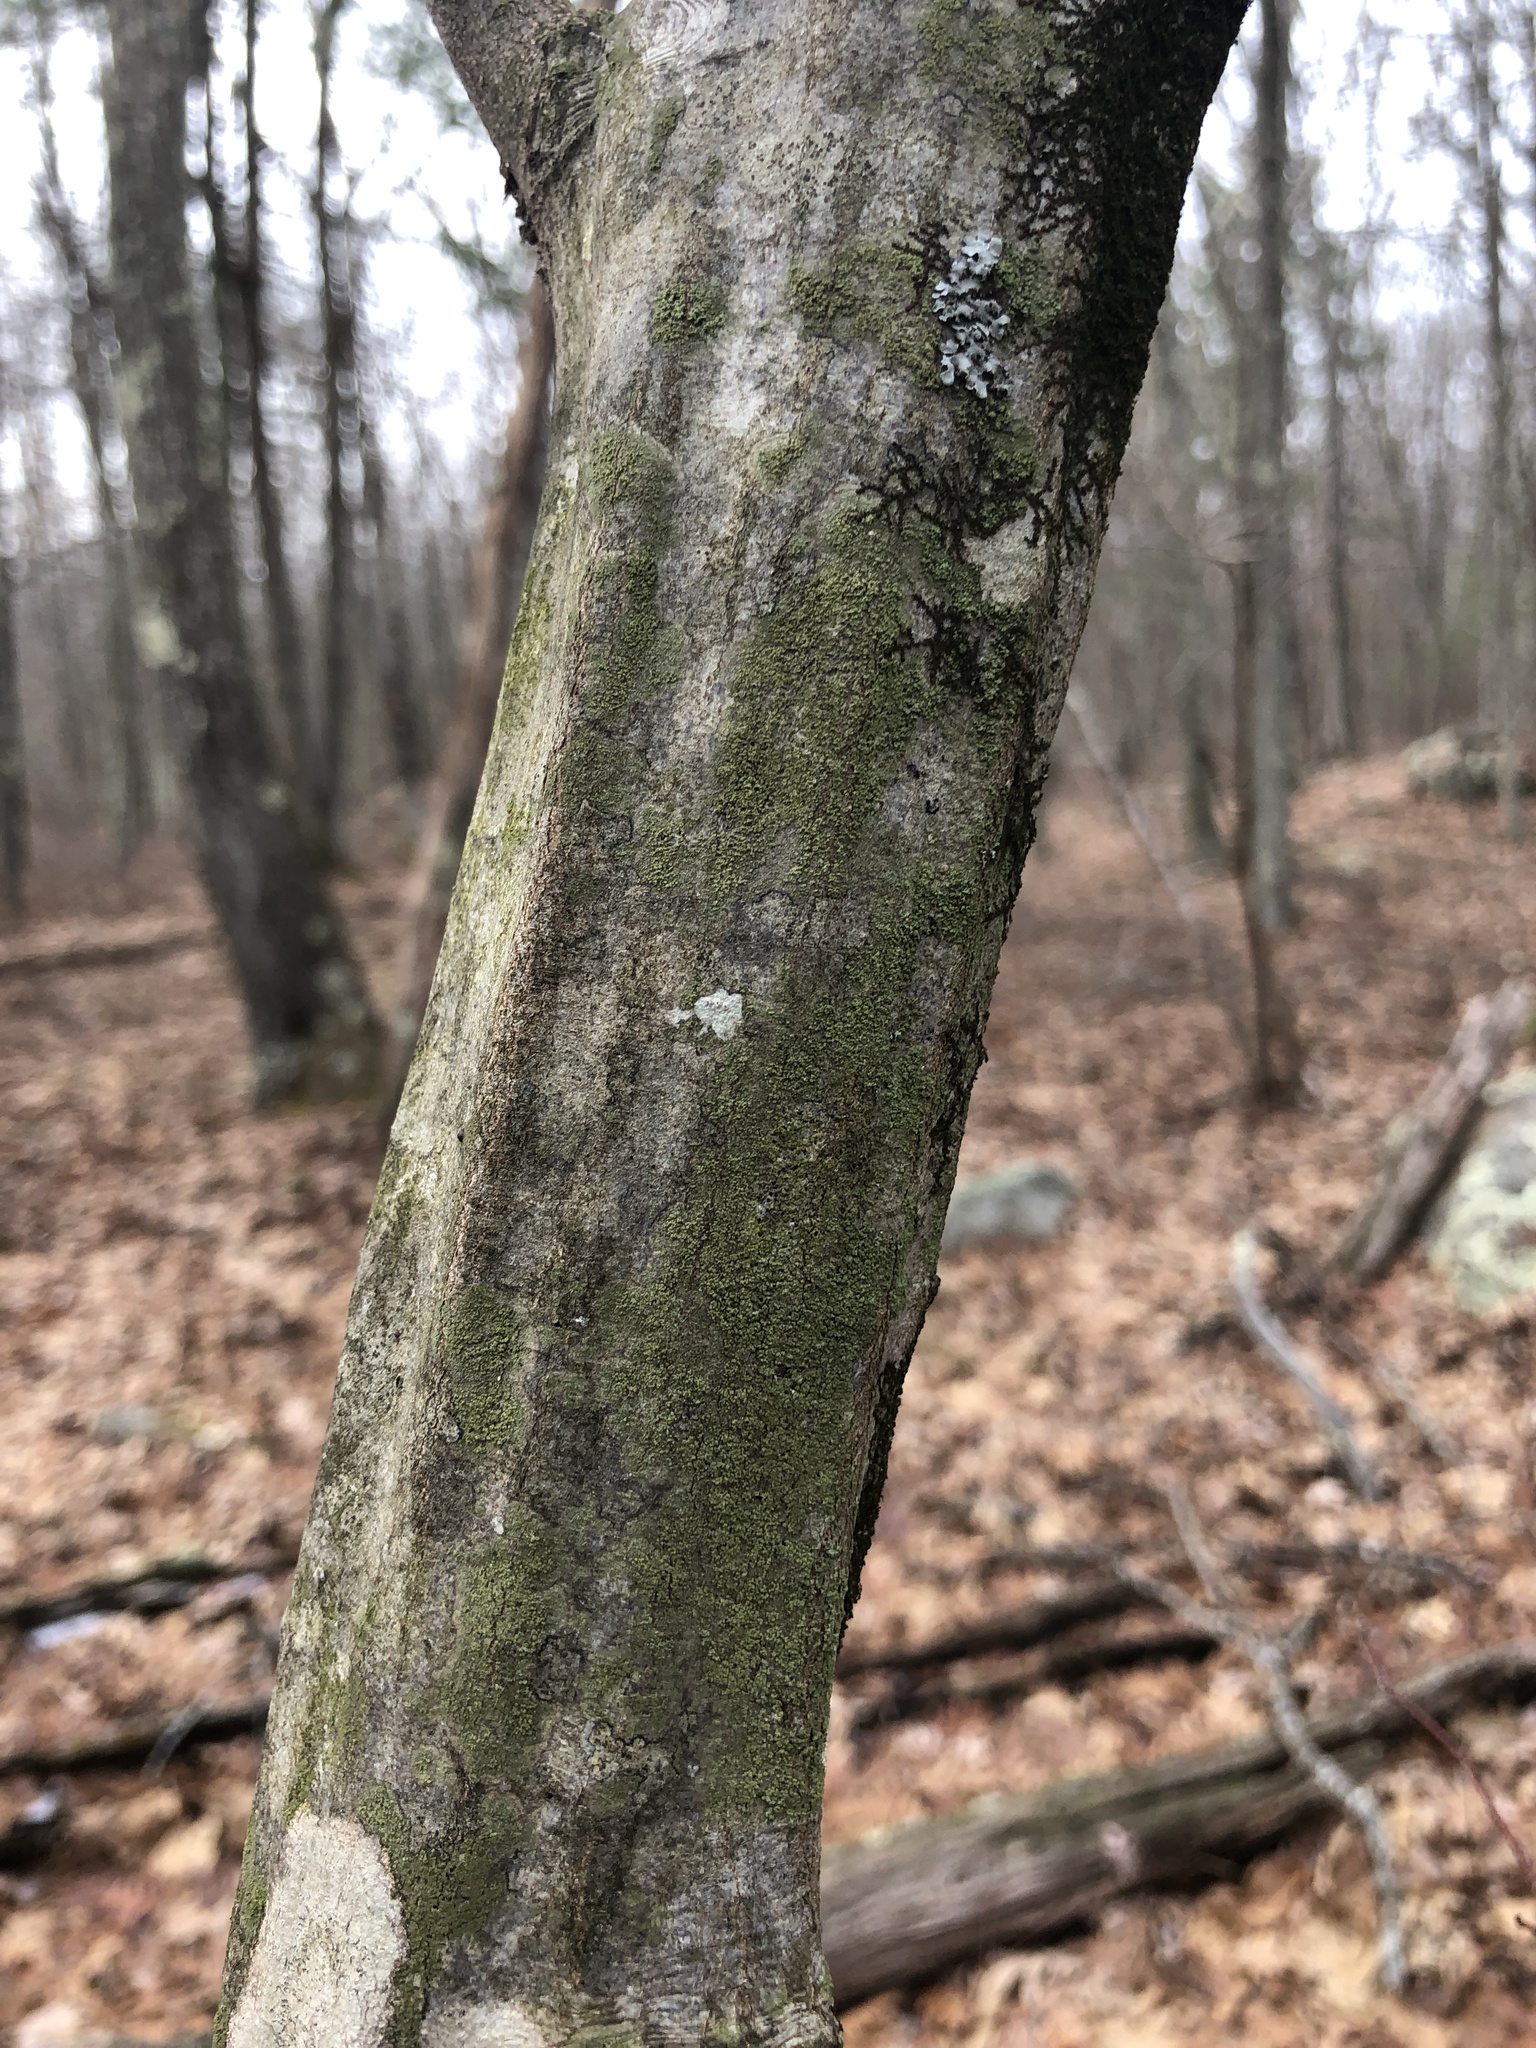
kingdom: Plantae
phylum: Tracheophyta
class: Magnoliopsida
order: Fagales
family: Betulaceae
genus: Carpinus
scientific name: Carpinus caroliniana
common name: American hornbeam
